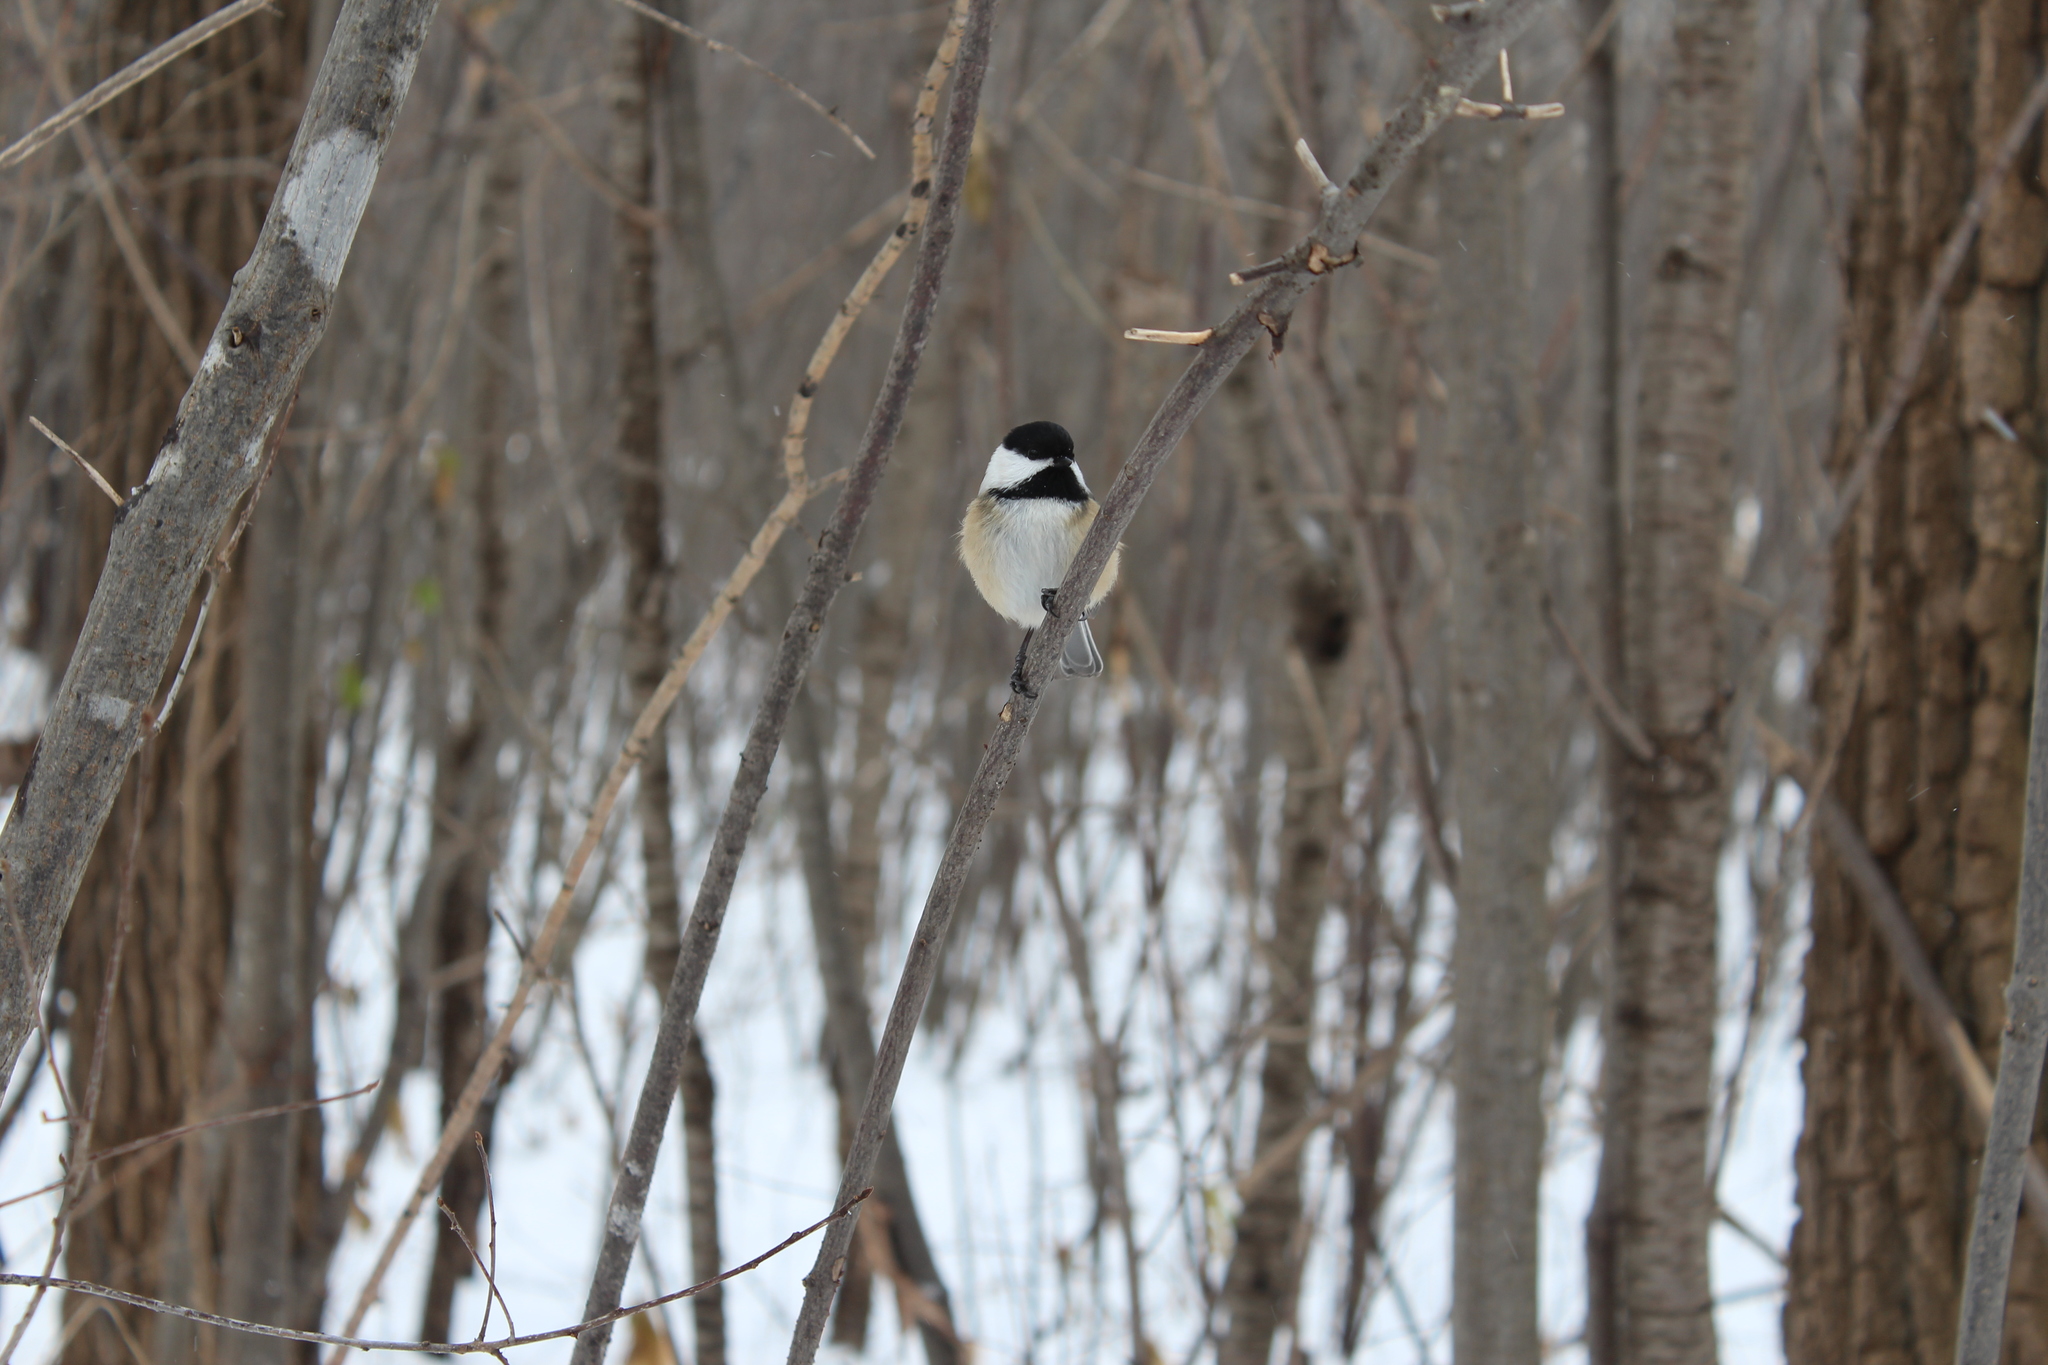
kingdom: Animalia
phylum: Chordata
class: Aves
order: Passeriformes
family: Paridae
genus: Poecile
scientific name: Poecile atricapillus
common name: Black-capped chickadee
